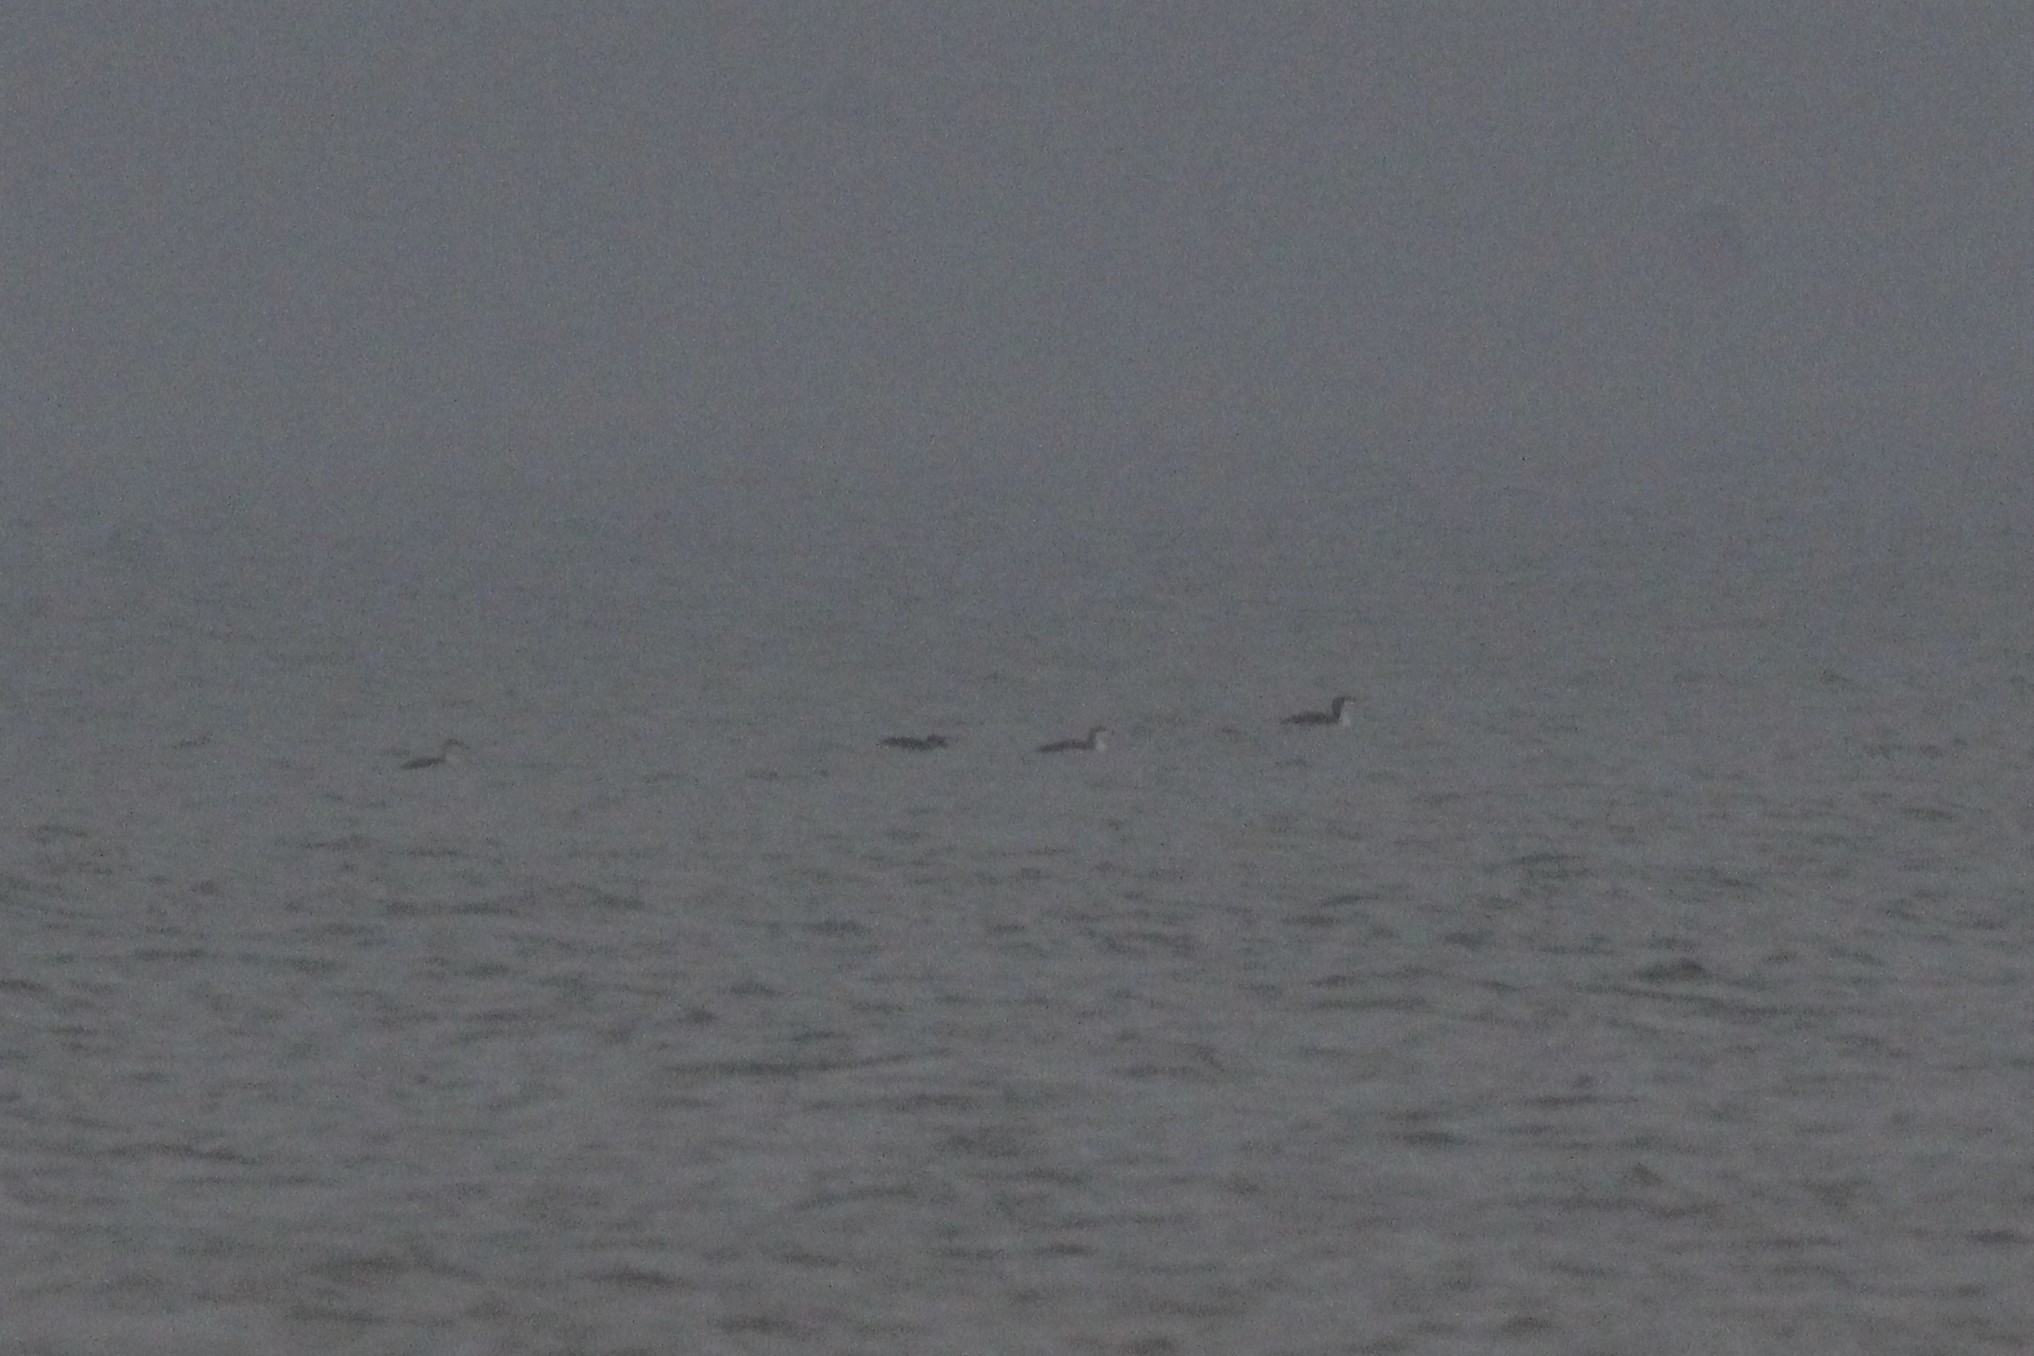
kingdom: Animalia
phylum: Chordata
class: Aves
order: Gaviiformes
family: Gaviidae
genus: Gavia
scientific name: Gavia stellata
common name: Red-throated loon
